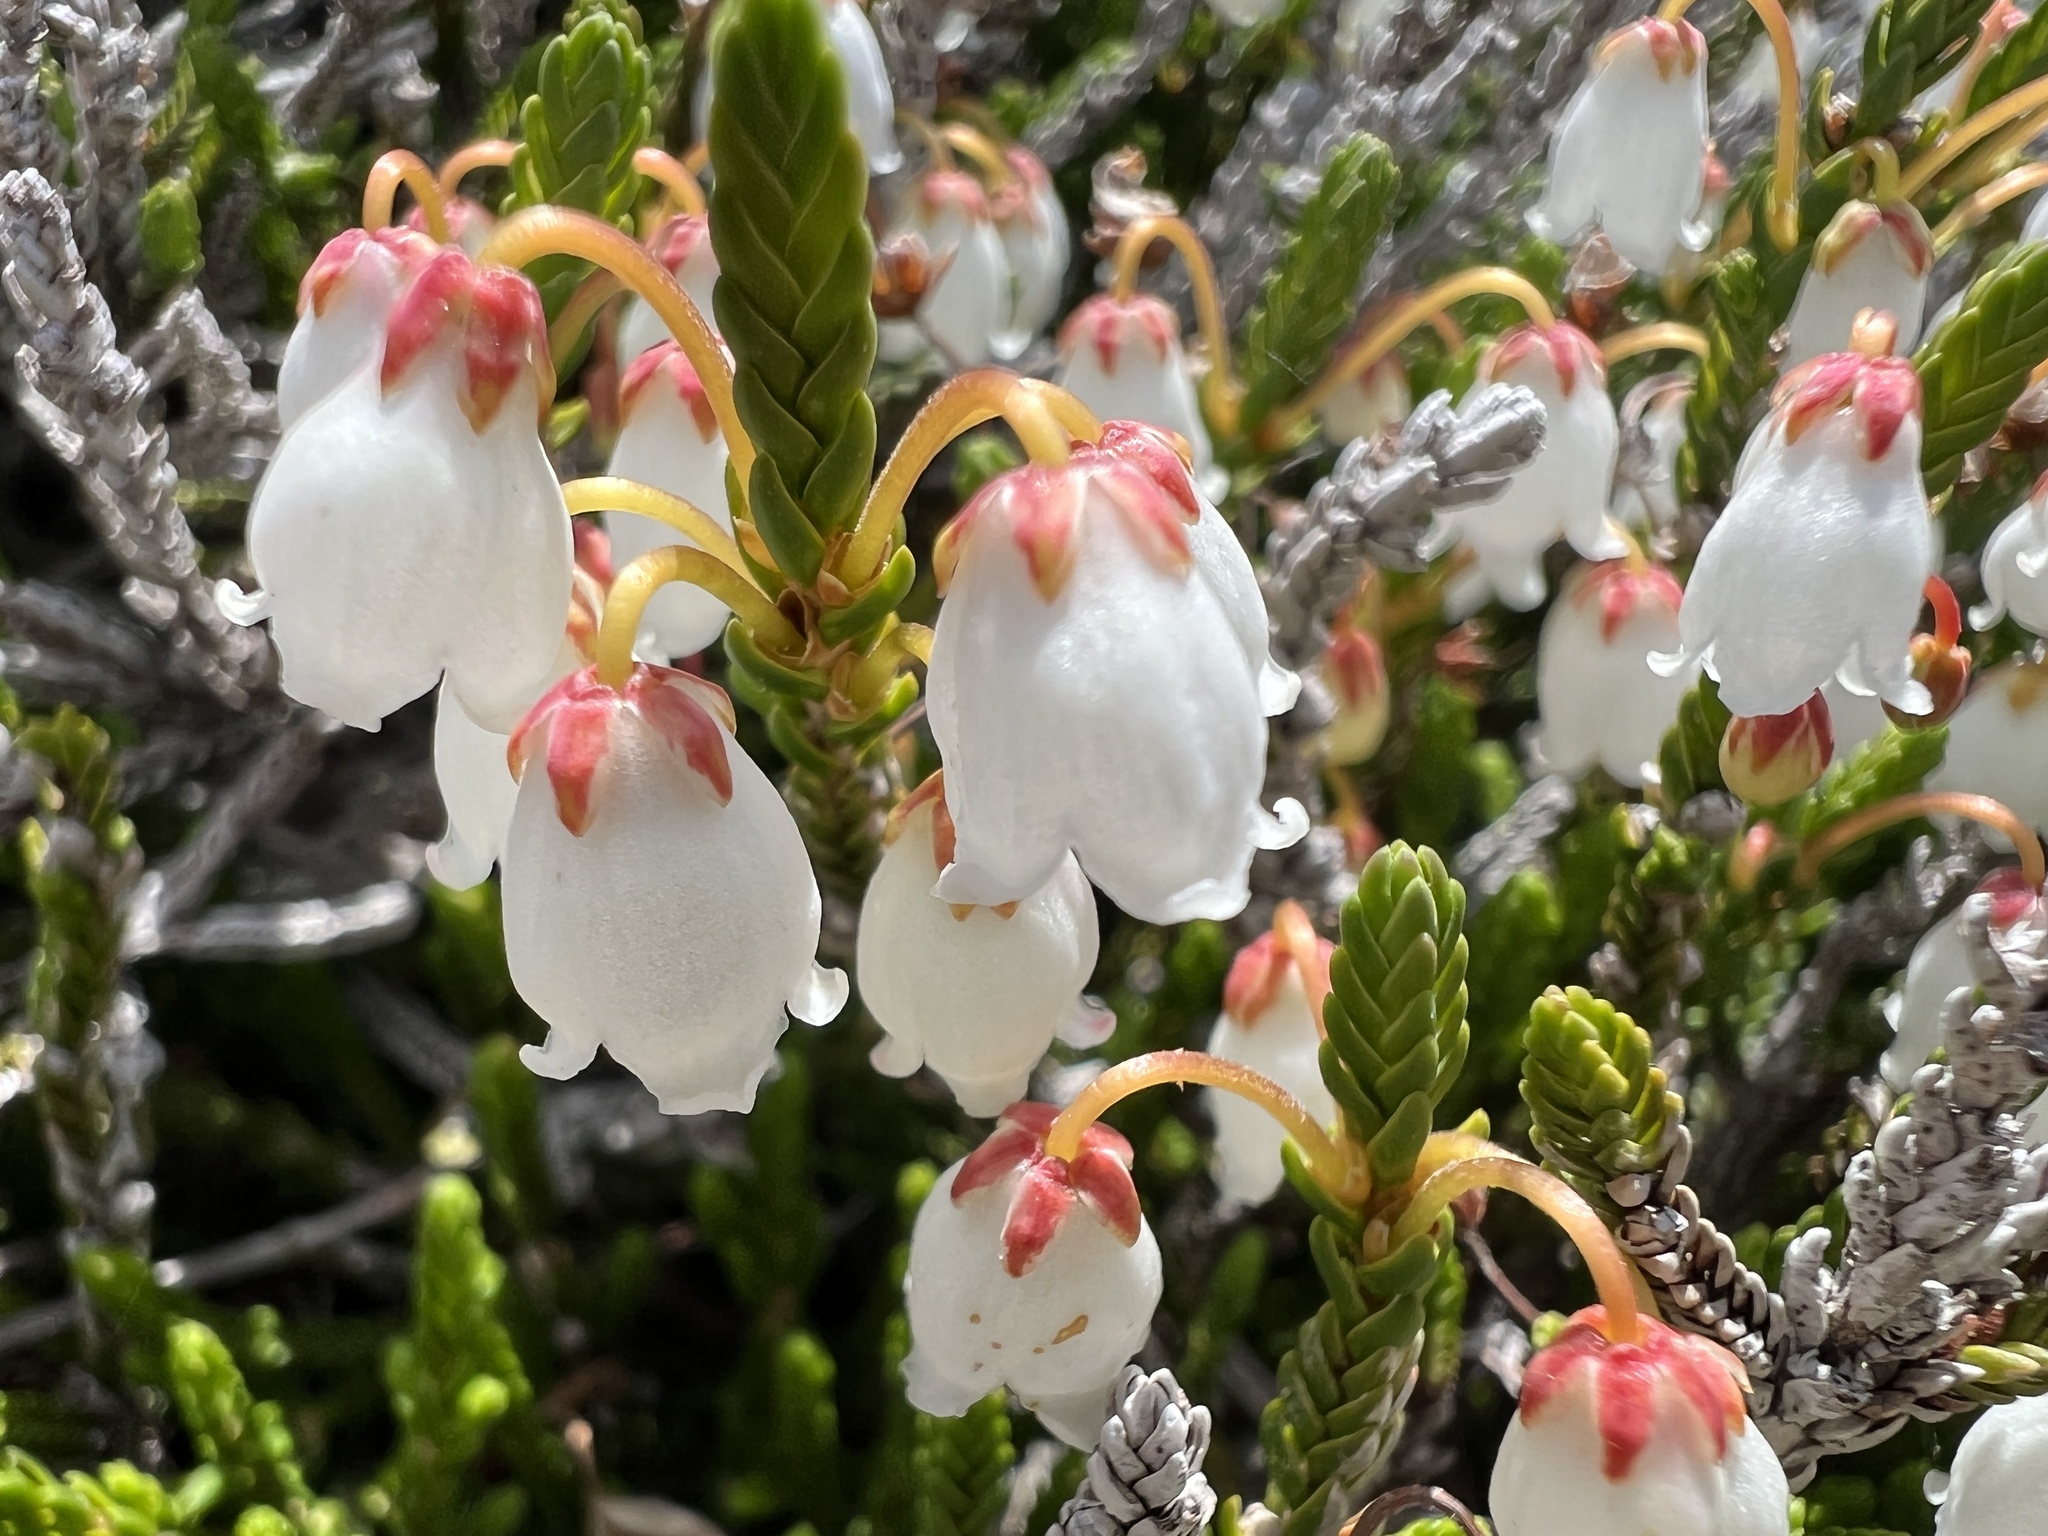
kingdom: Plantae
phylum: Tracheophyta
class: Magnoliopsida
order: Ericales
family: Ericaceae
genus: Cassiope
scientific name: Cassiope mertensiana
